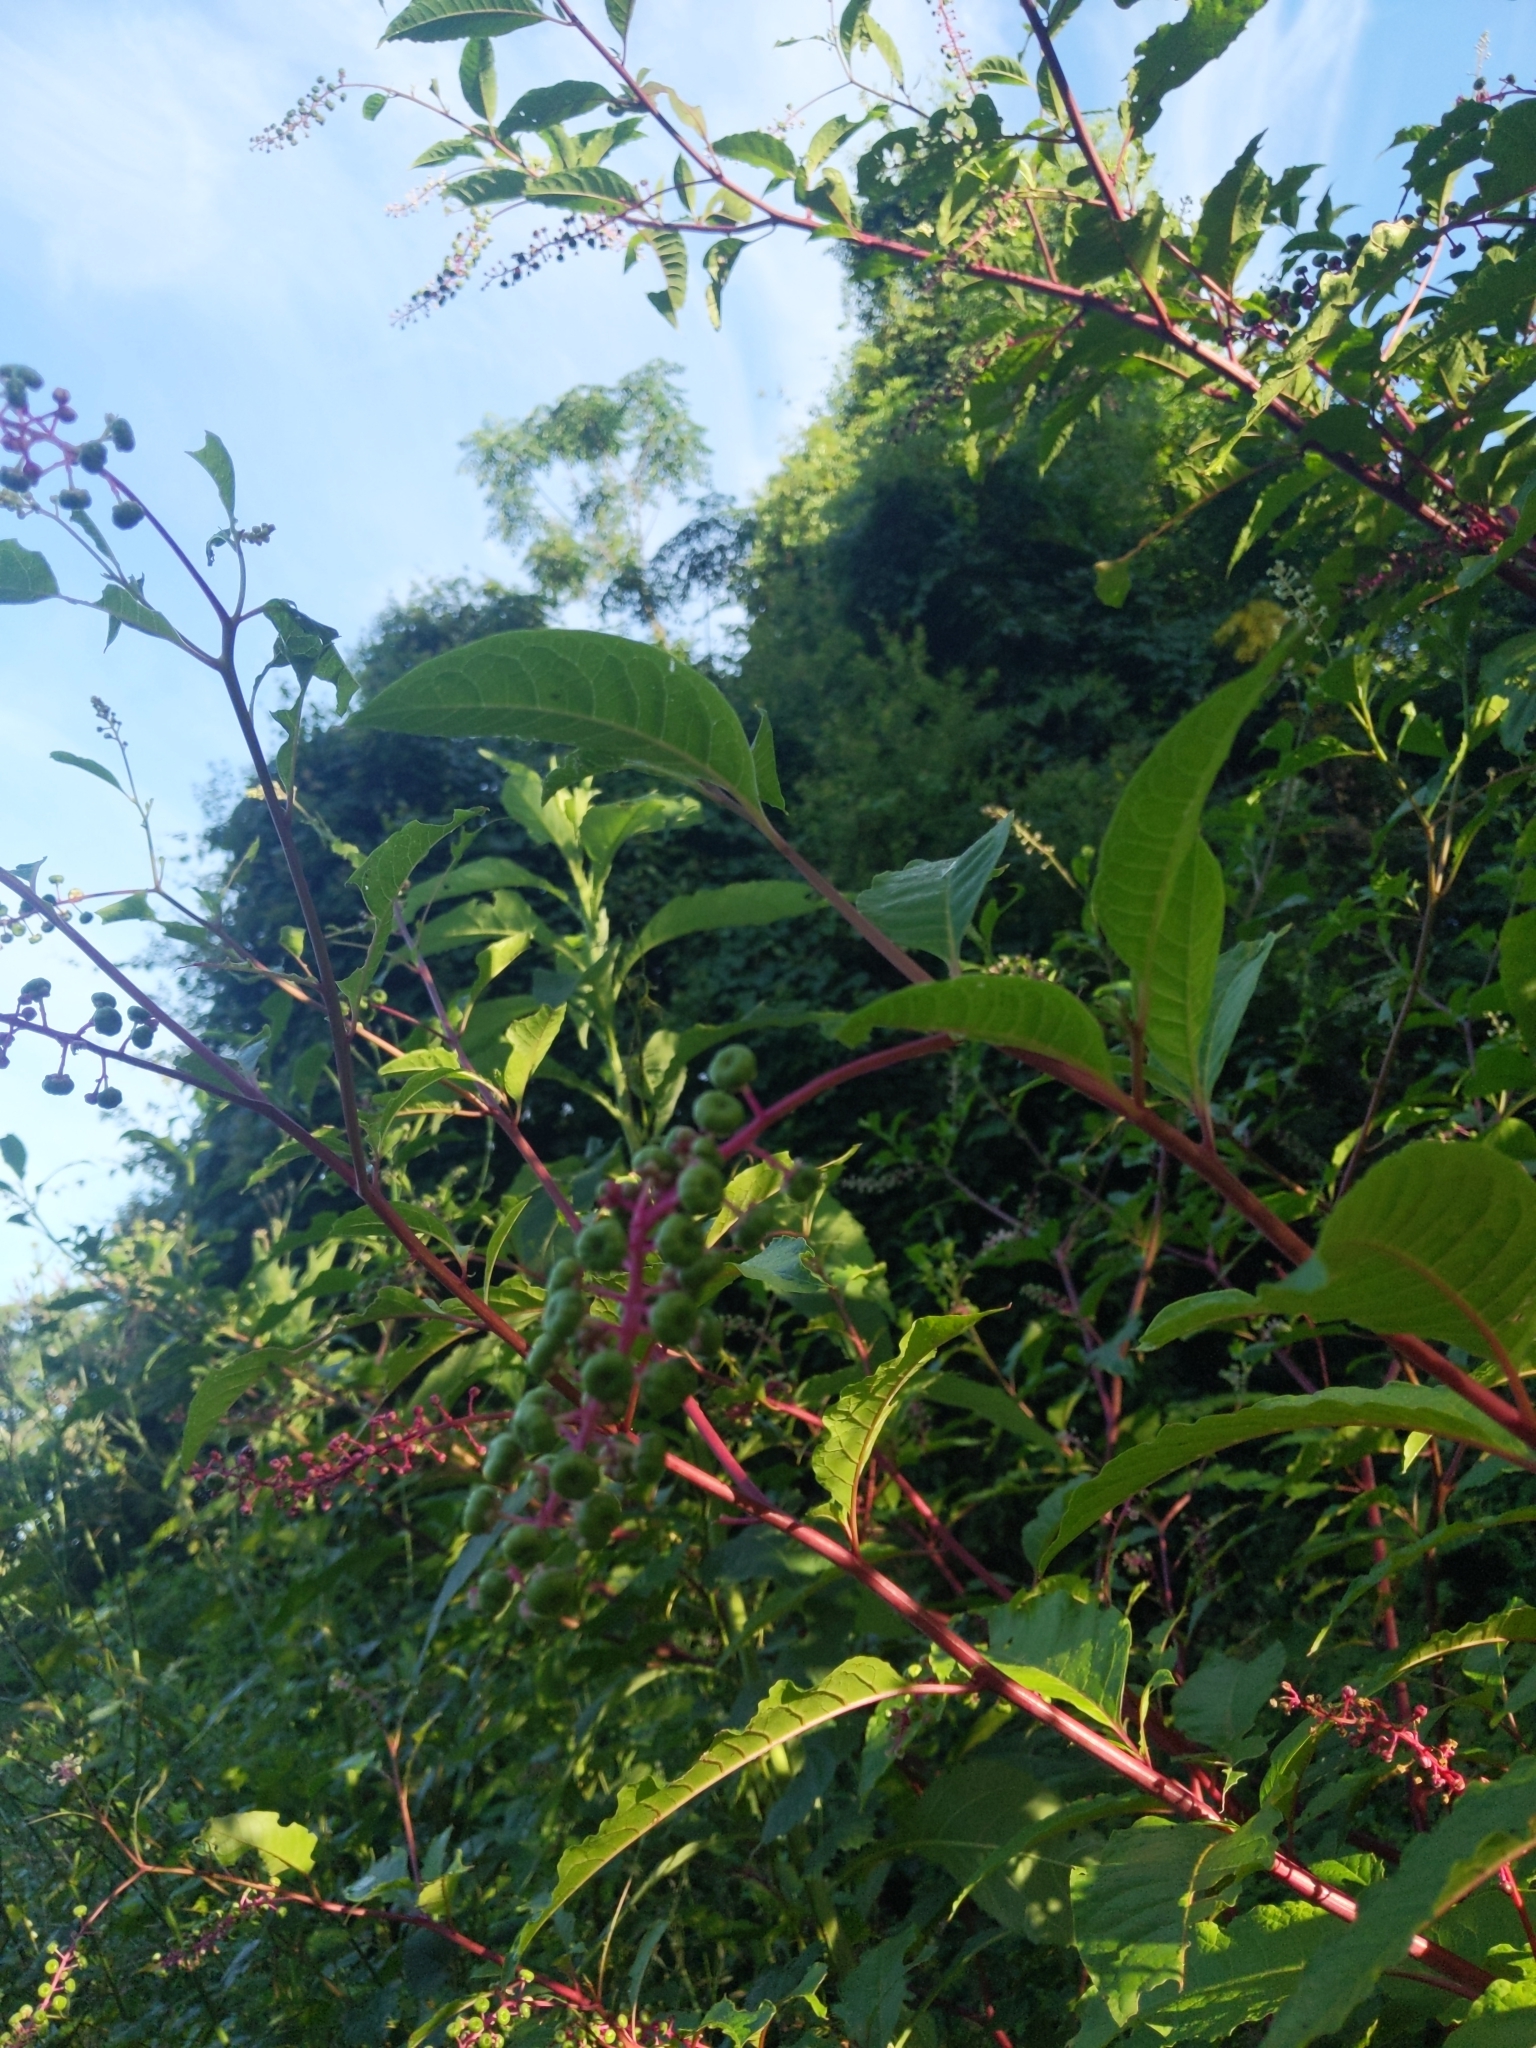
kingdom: Plantae
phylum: Tracheophyta
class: Magnoliopsida
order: Caryophyllales
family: Phytolaccaceae
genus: Phytolacca
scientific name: Phytolacca americana
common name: American pokeweed
